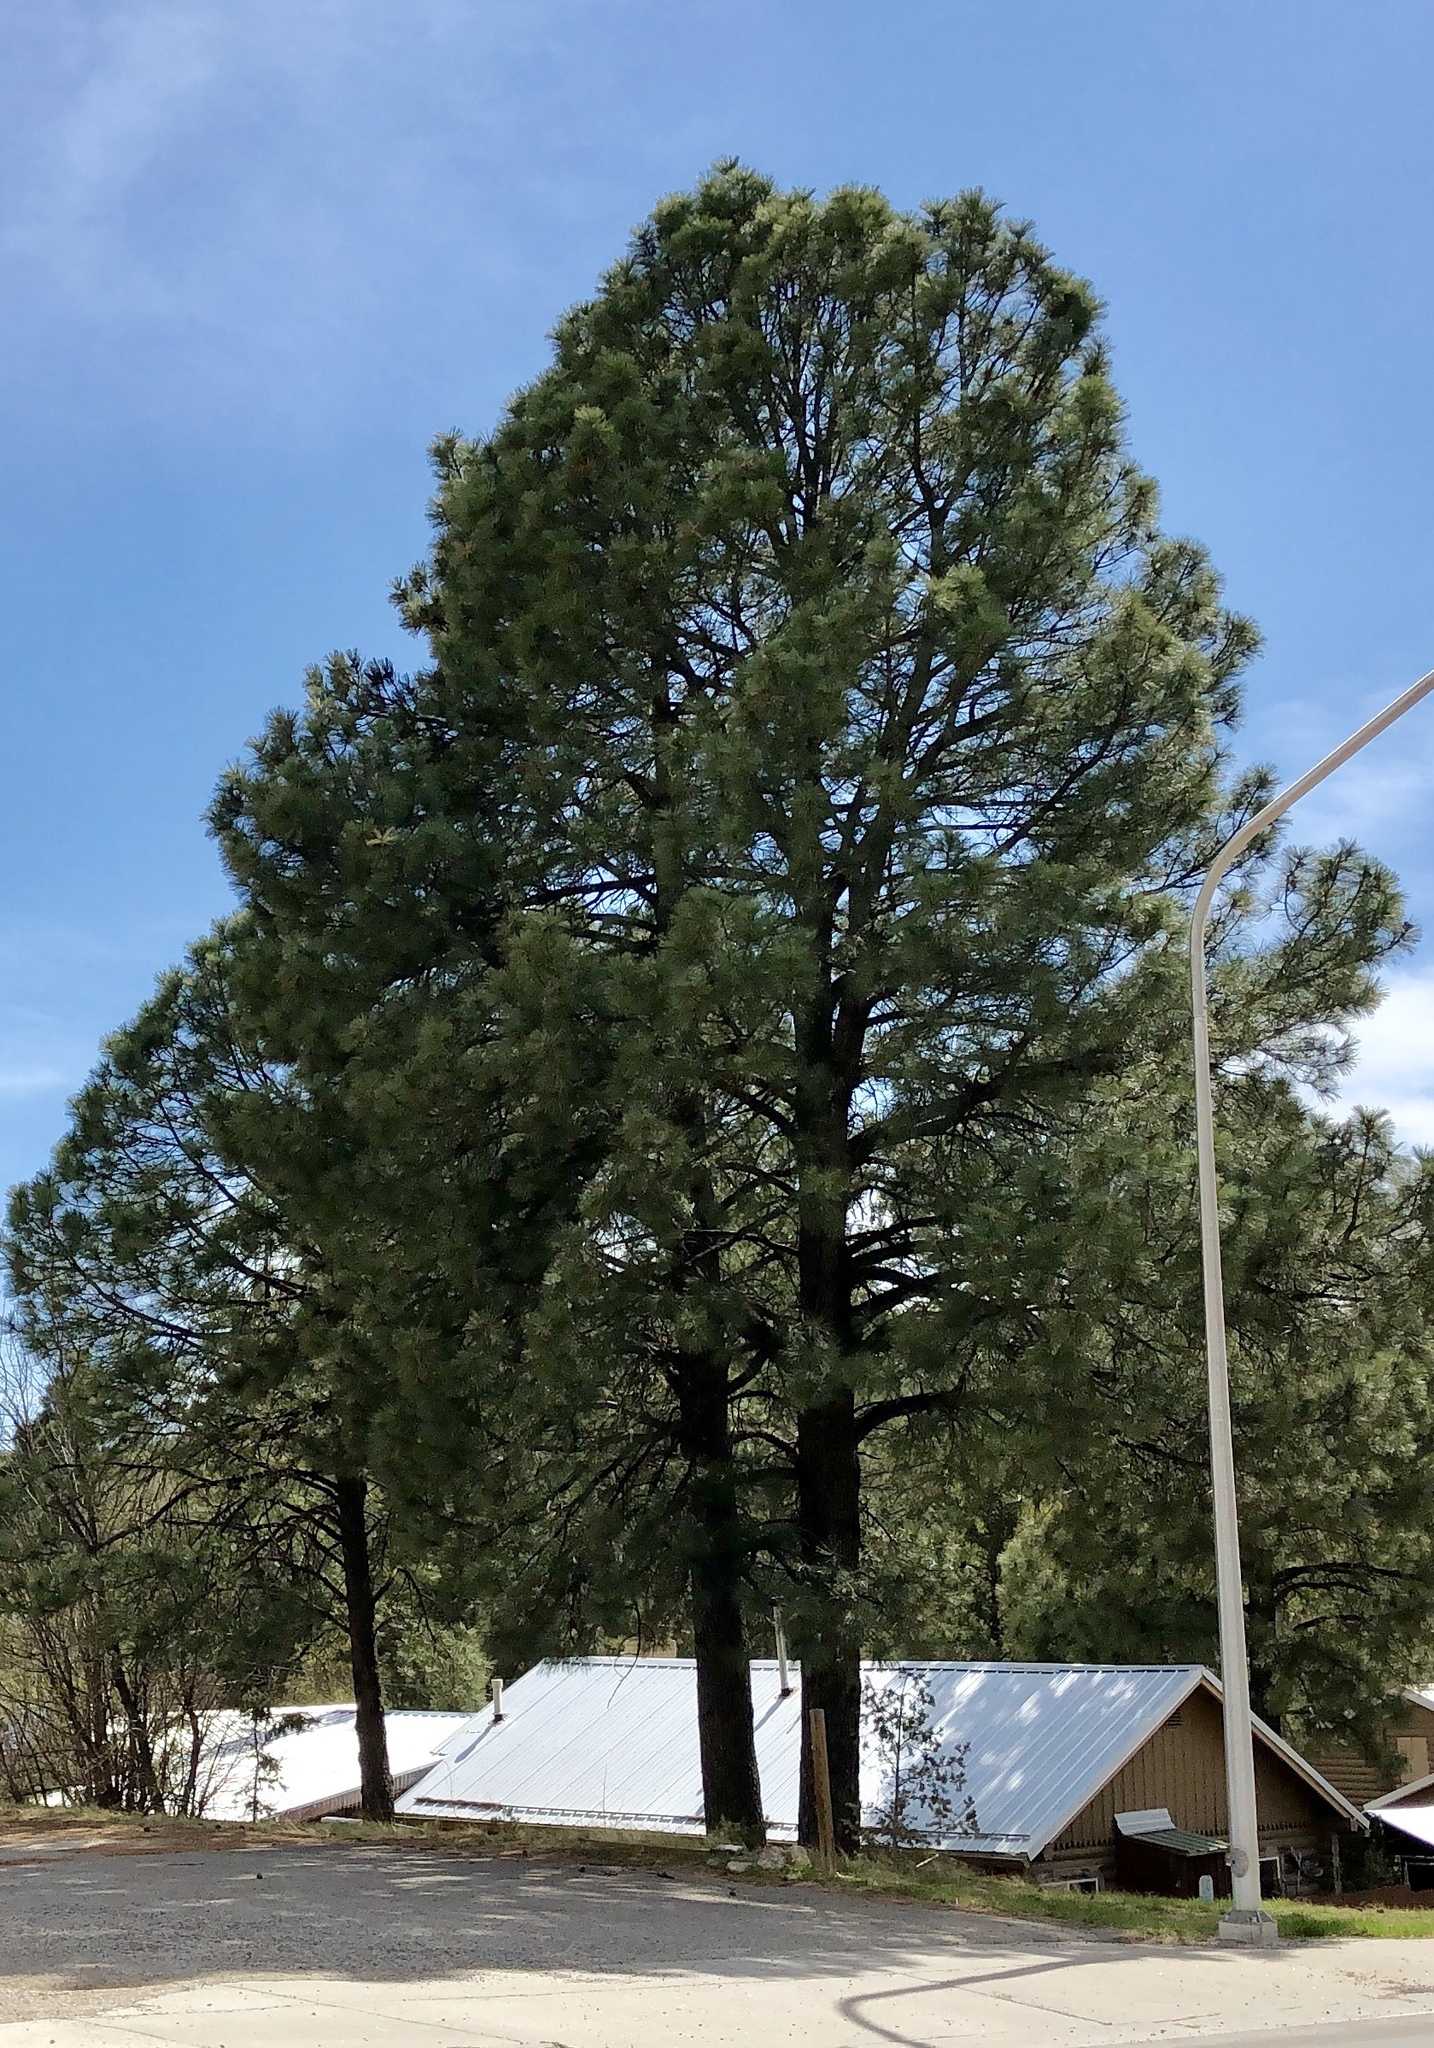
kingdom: Plantae
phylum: Tracheophyta
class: Pinopsida
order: Pinales
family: Pinaceae
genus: Pinus
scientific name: Pinus ponderosa
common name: Western yellow-pine
